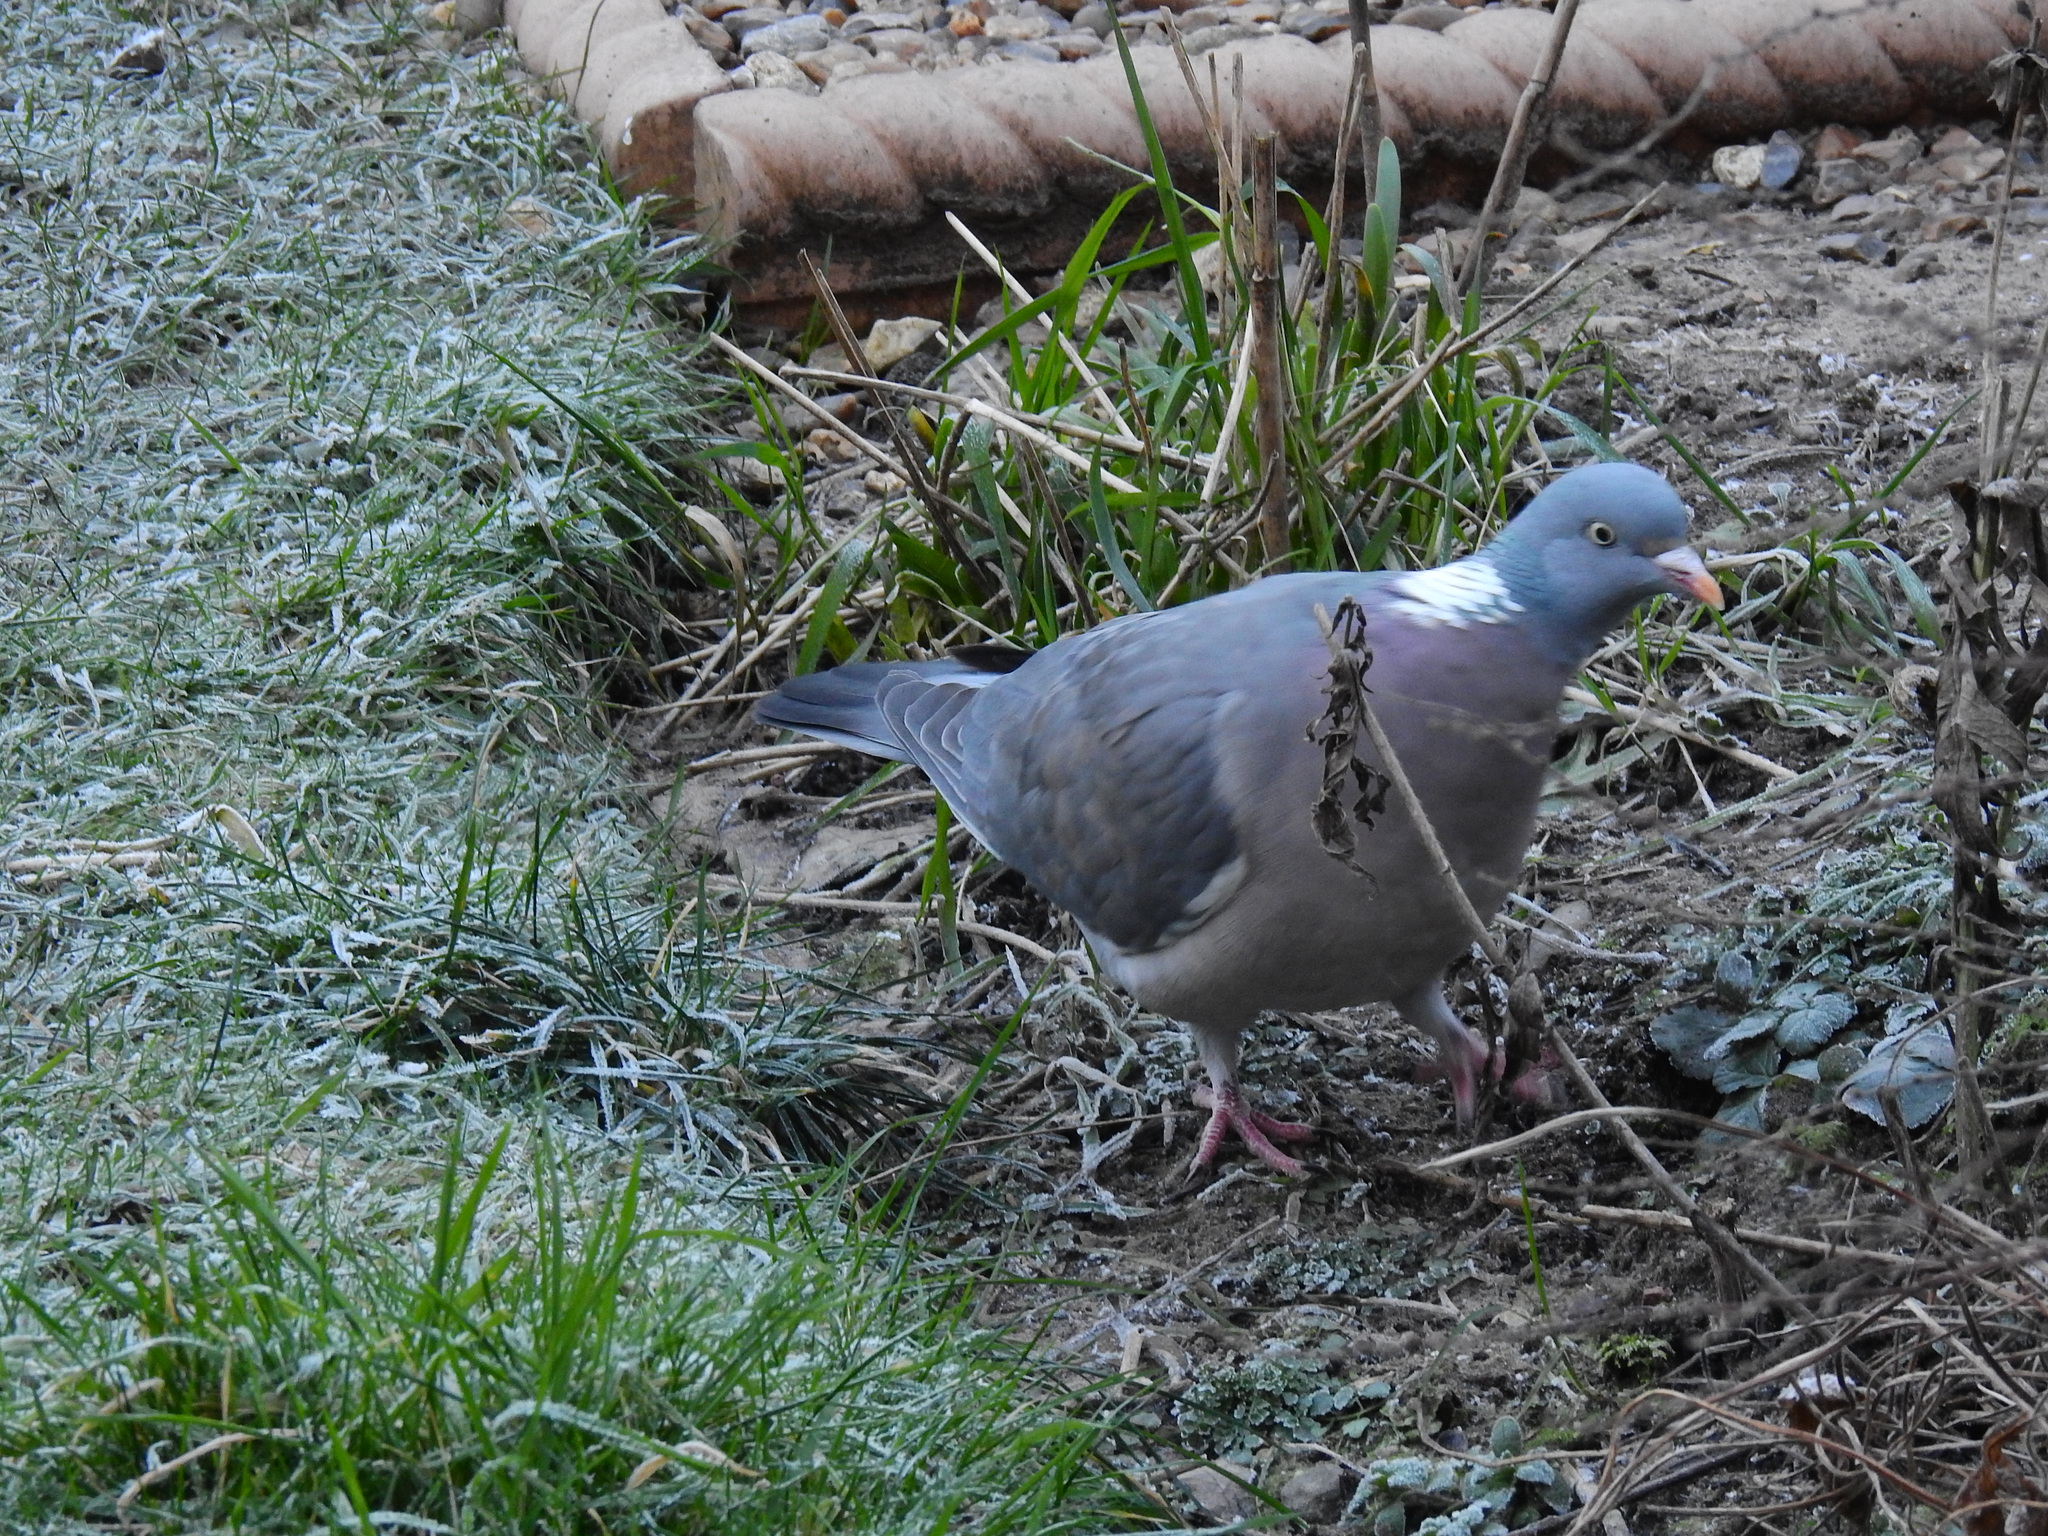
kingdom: Animalia
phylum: Chordata
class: Aves
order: Columbiformes
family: Columbidae
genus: Columba
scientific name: Columba palumbus
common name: Common wood pigeon
